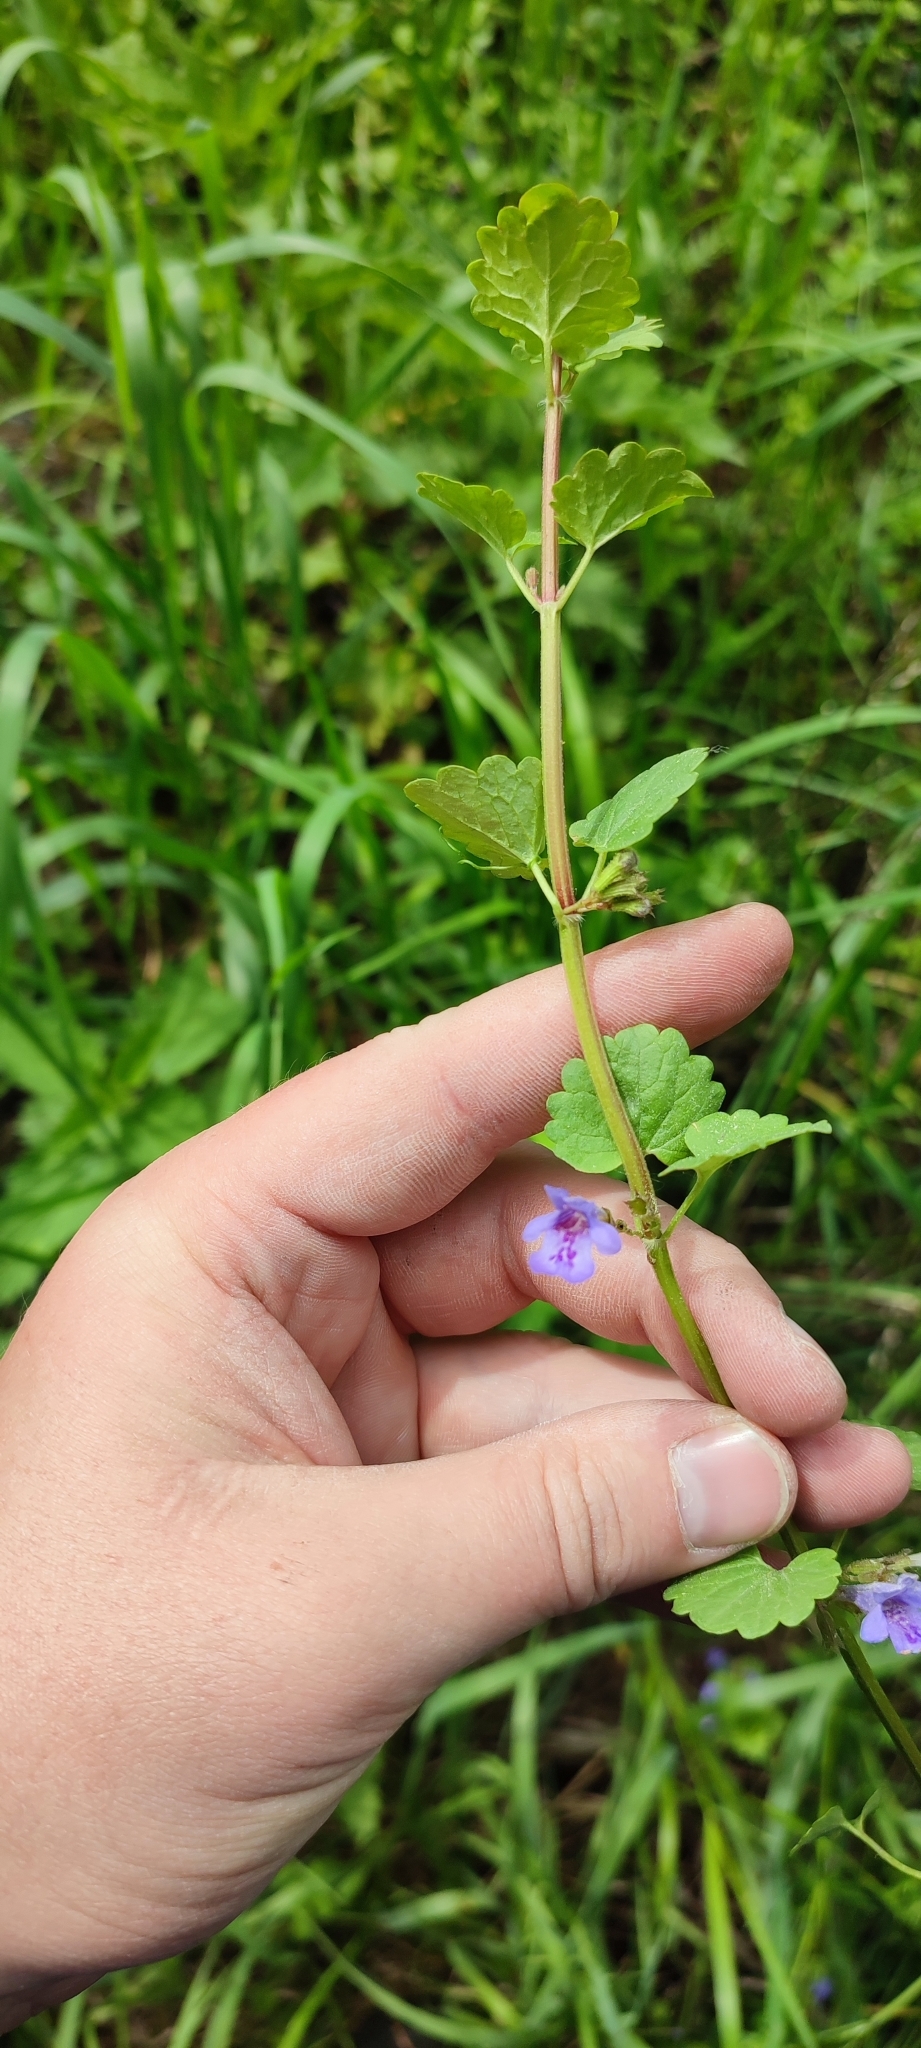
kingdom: Plantae
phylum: Tracheophyta
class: Magnoliopsida
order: Lamiales
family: Lamiaceae
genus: Glechoma
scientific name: Glechoma hederacea
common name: Ground ivy
